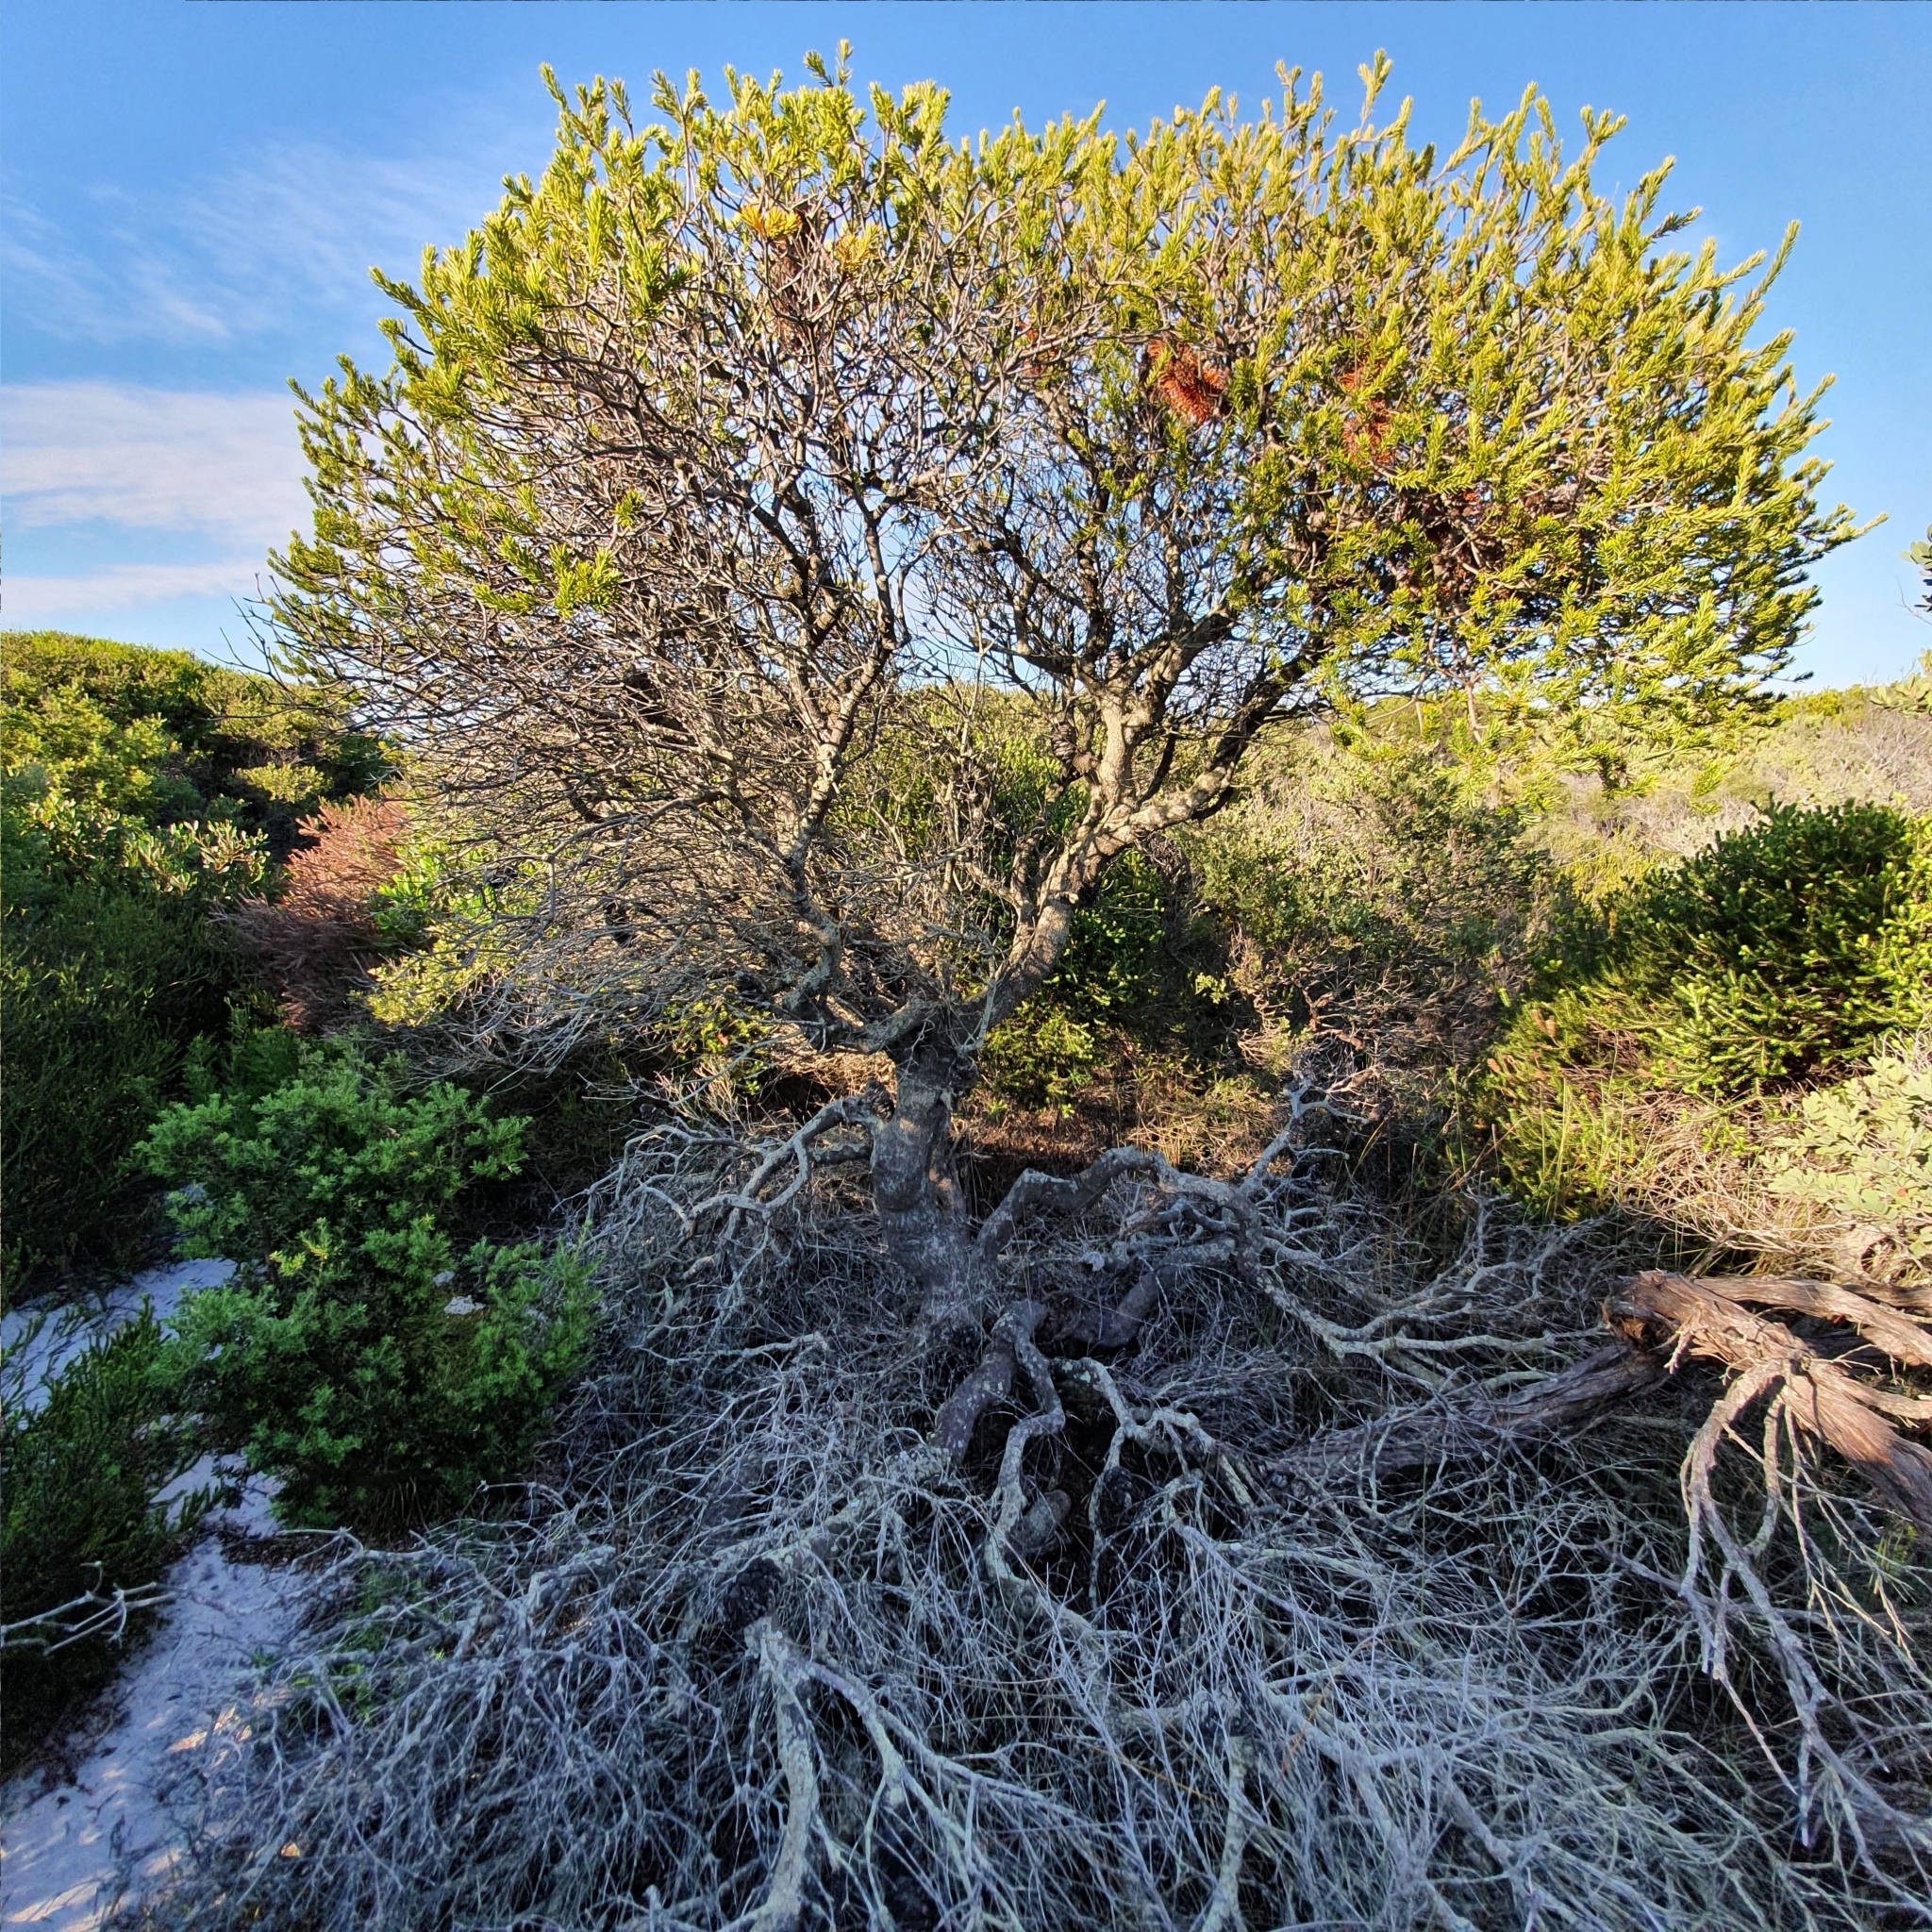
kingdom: Plantae
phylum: Tracheophyta
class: Magnoliopsida
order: Proteales
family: Proteaceae
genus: Banksia
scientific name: Banksia ericifolia
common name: Heath-leaf banksia
